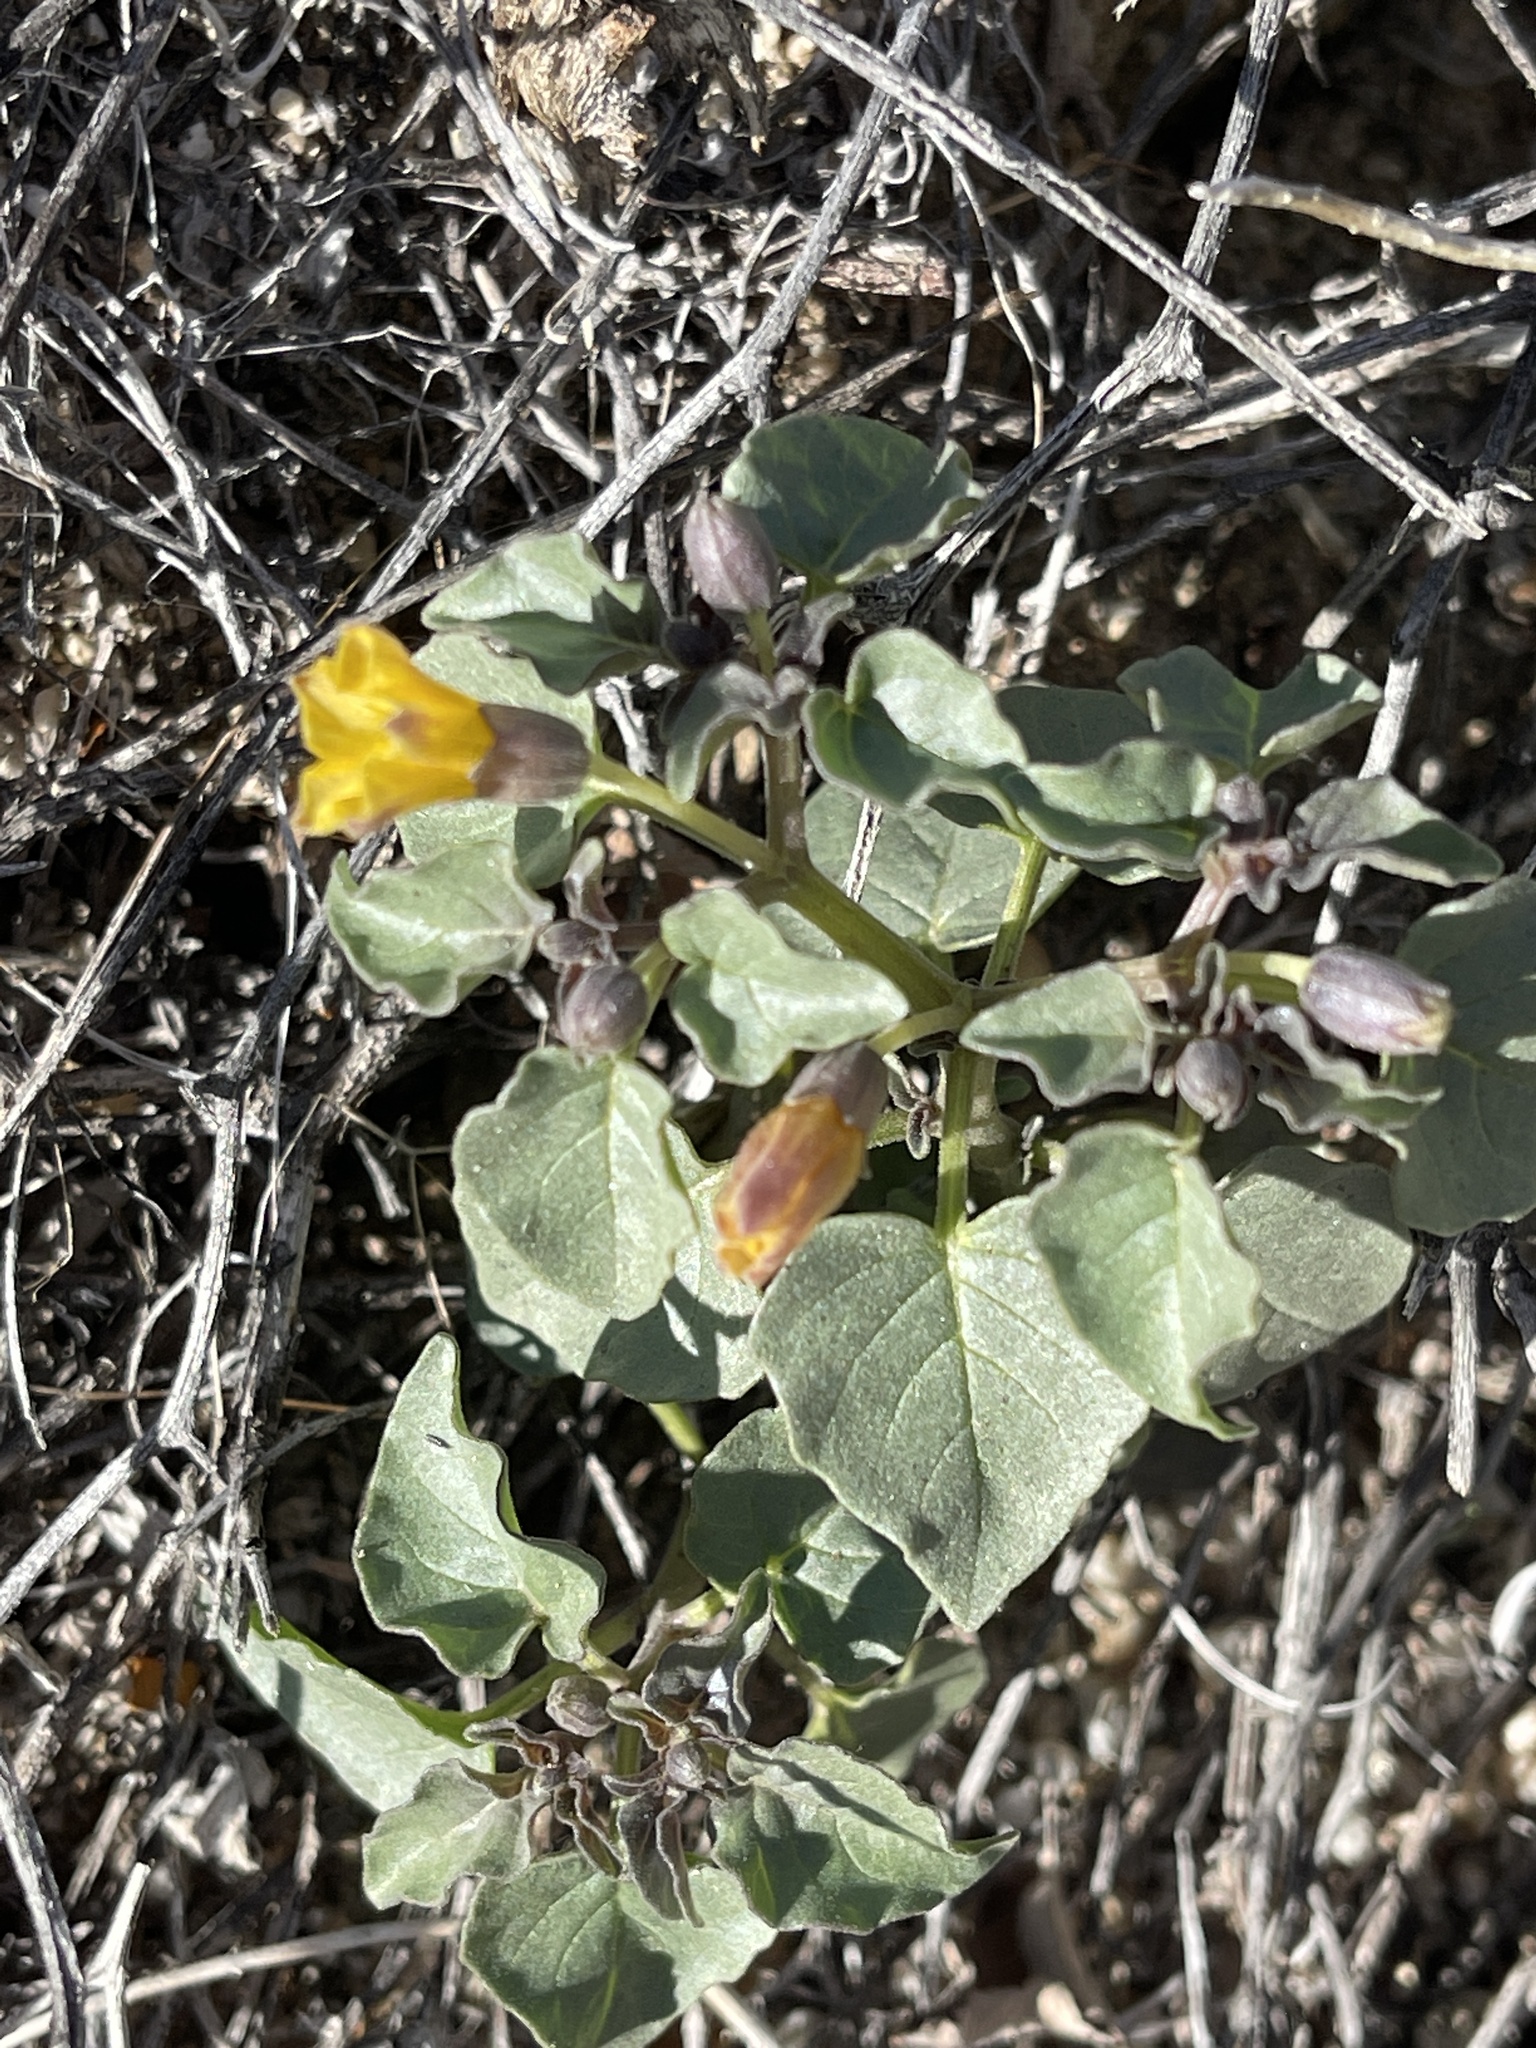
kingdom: Plantae
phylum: Tracheophyta
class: Magnoliopsida
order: Solanales
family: Solanaceae
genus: Physalis
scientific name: Physalis crassifolia
